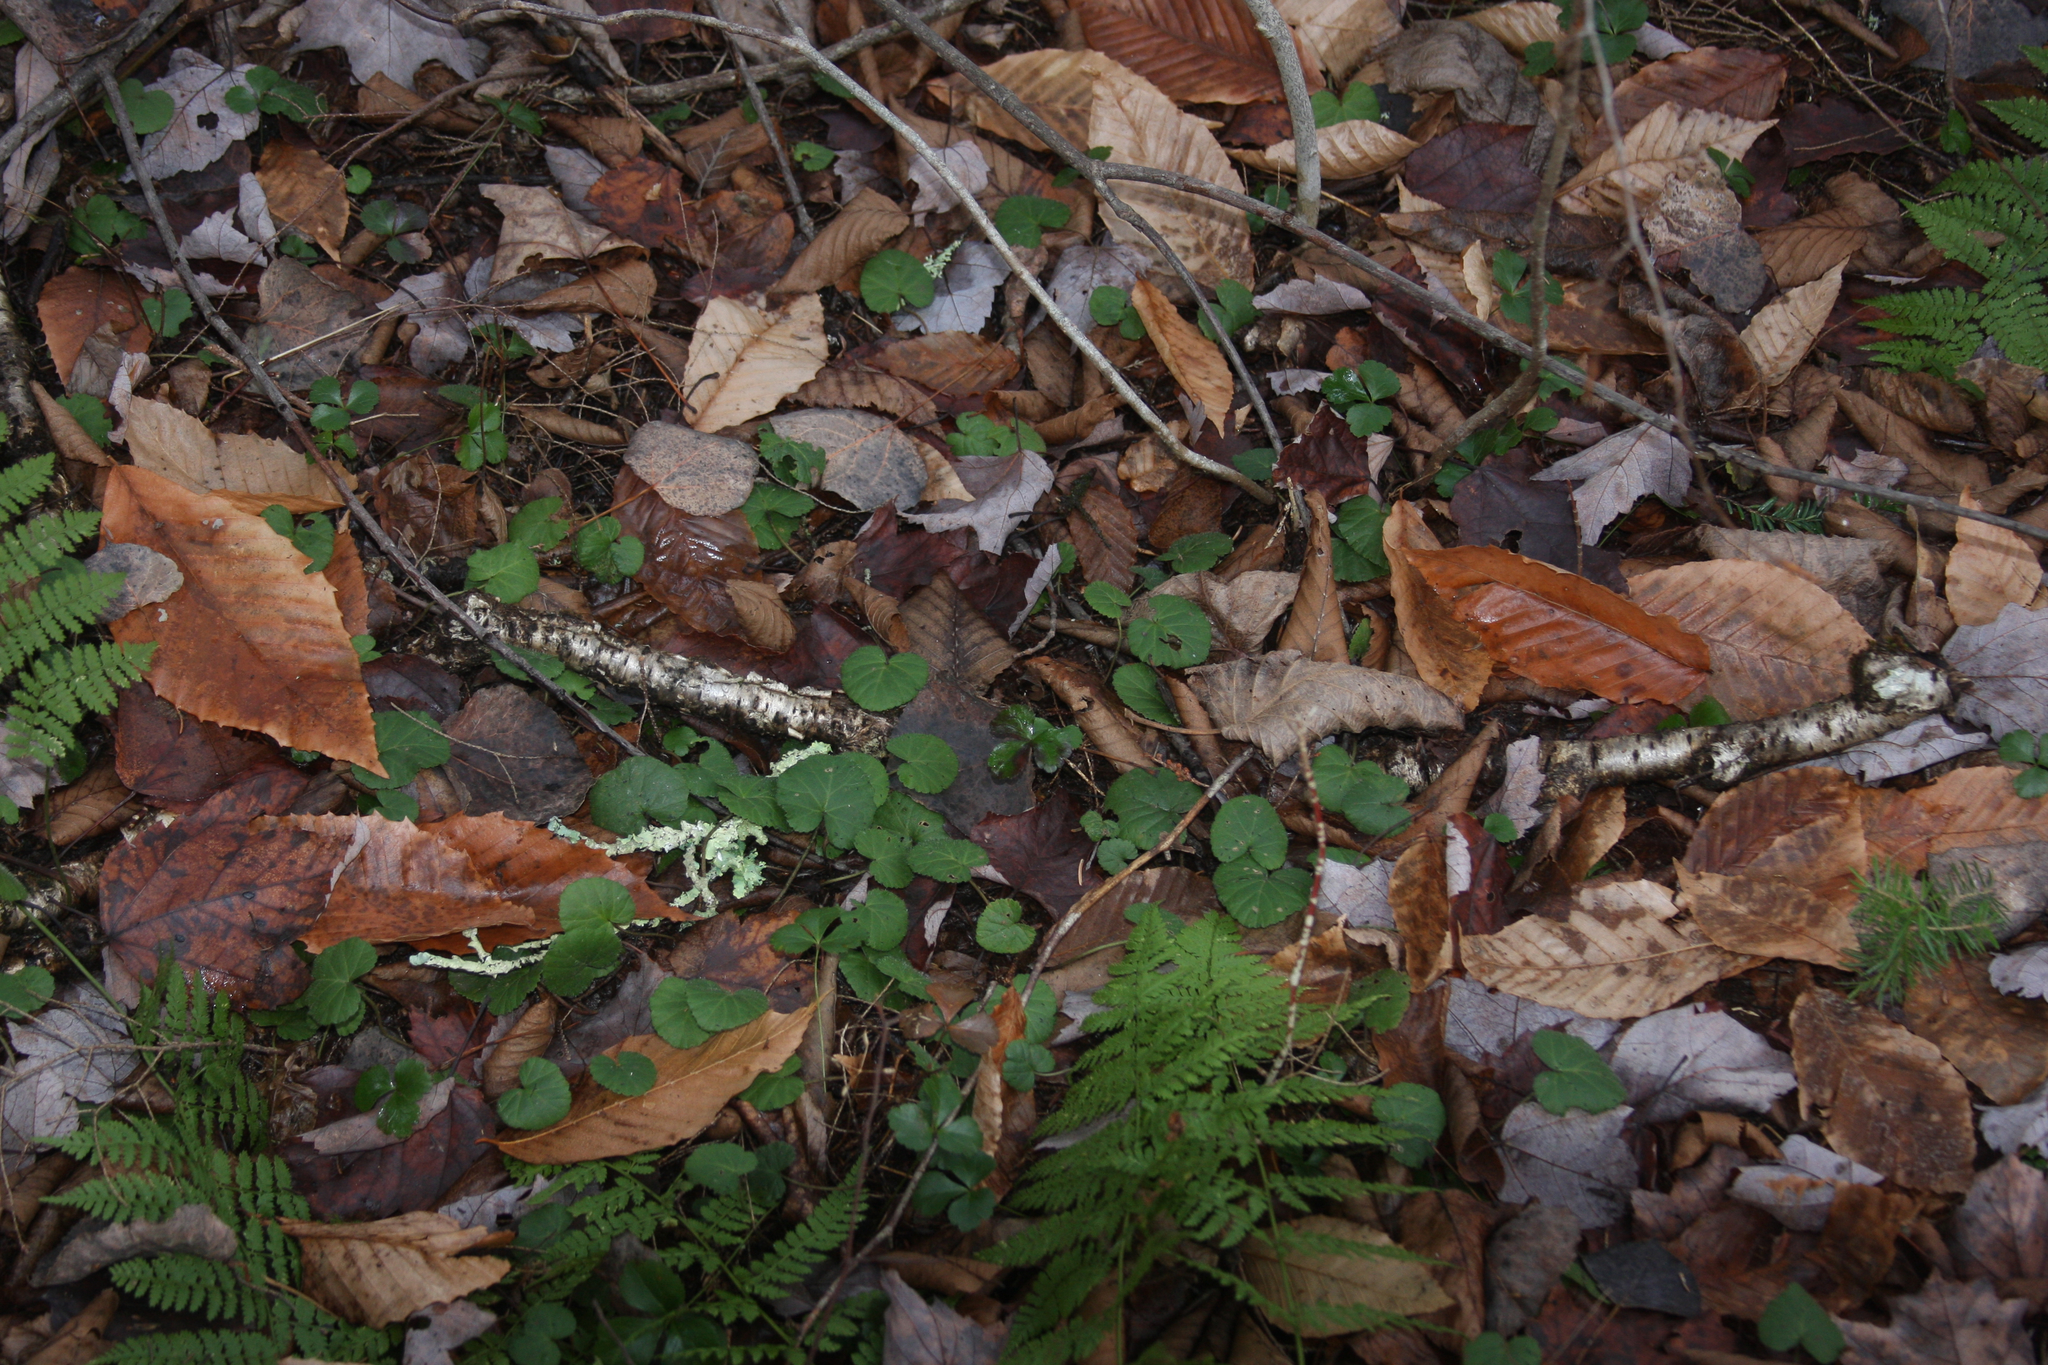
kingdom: Plantae
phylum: Tracheophyta
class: Magnoliopsida
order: Rosales
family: Rosaceae
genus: Dalibarda
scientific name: Dalibarda repens
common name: Dewdrop
